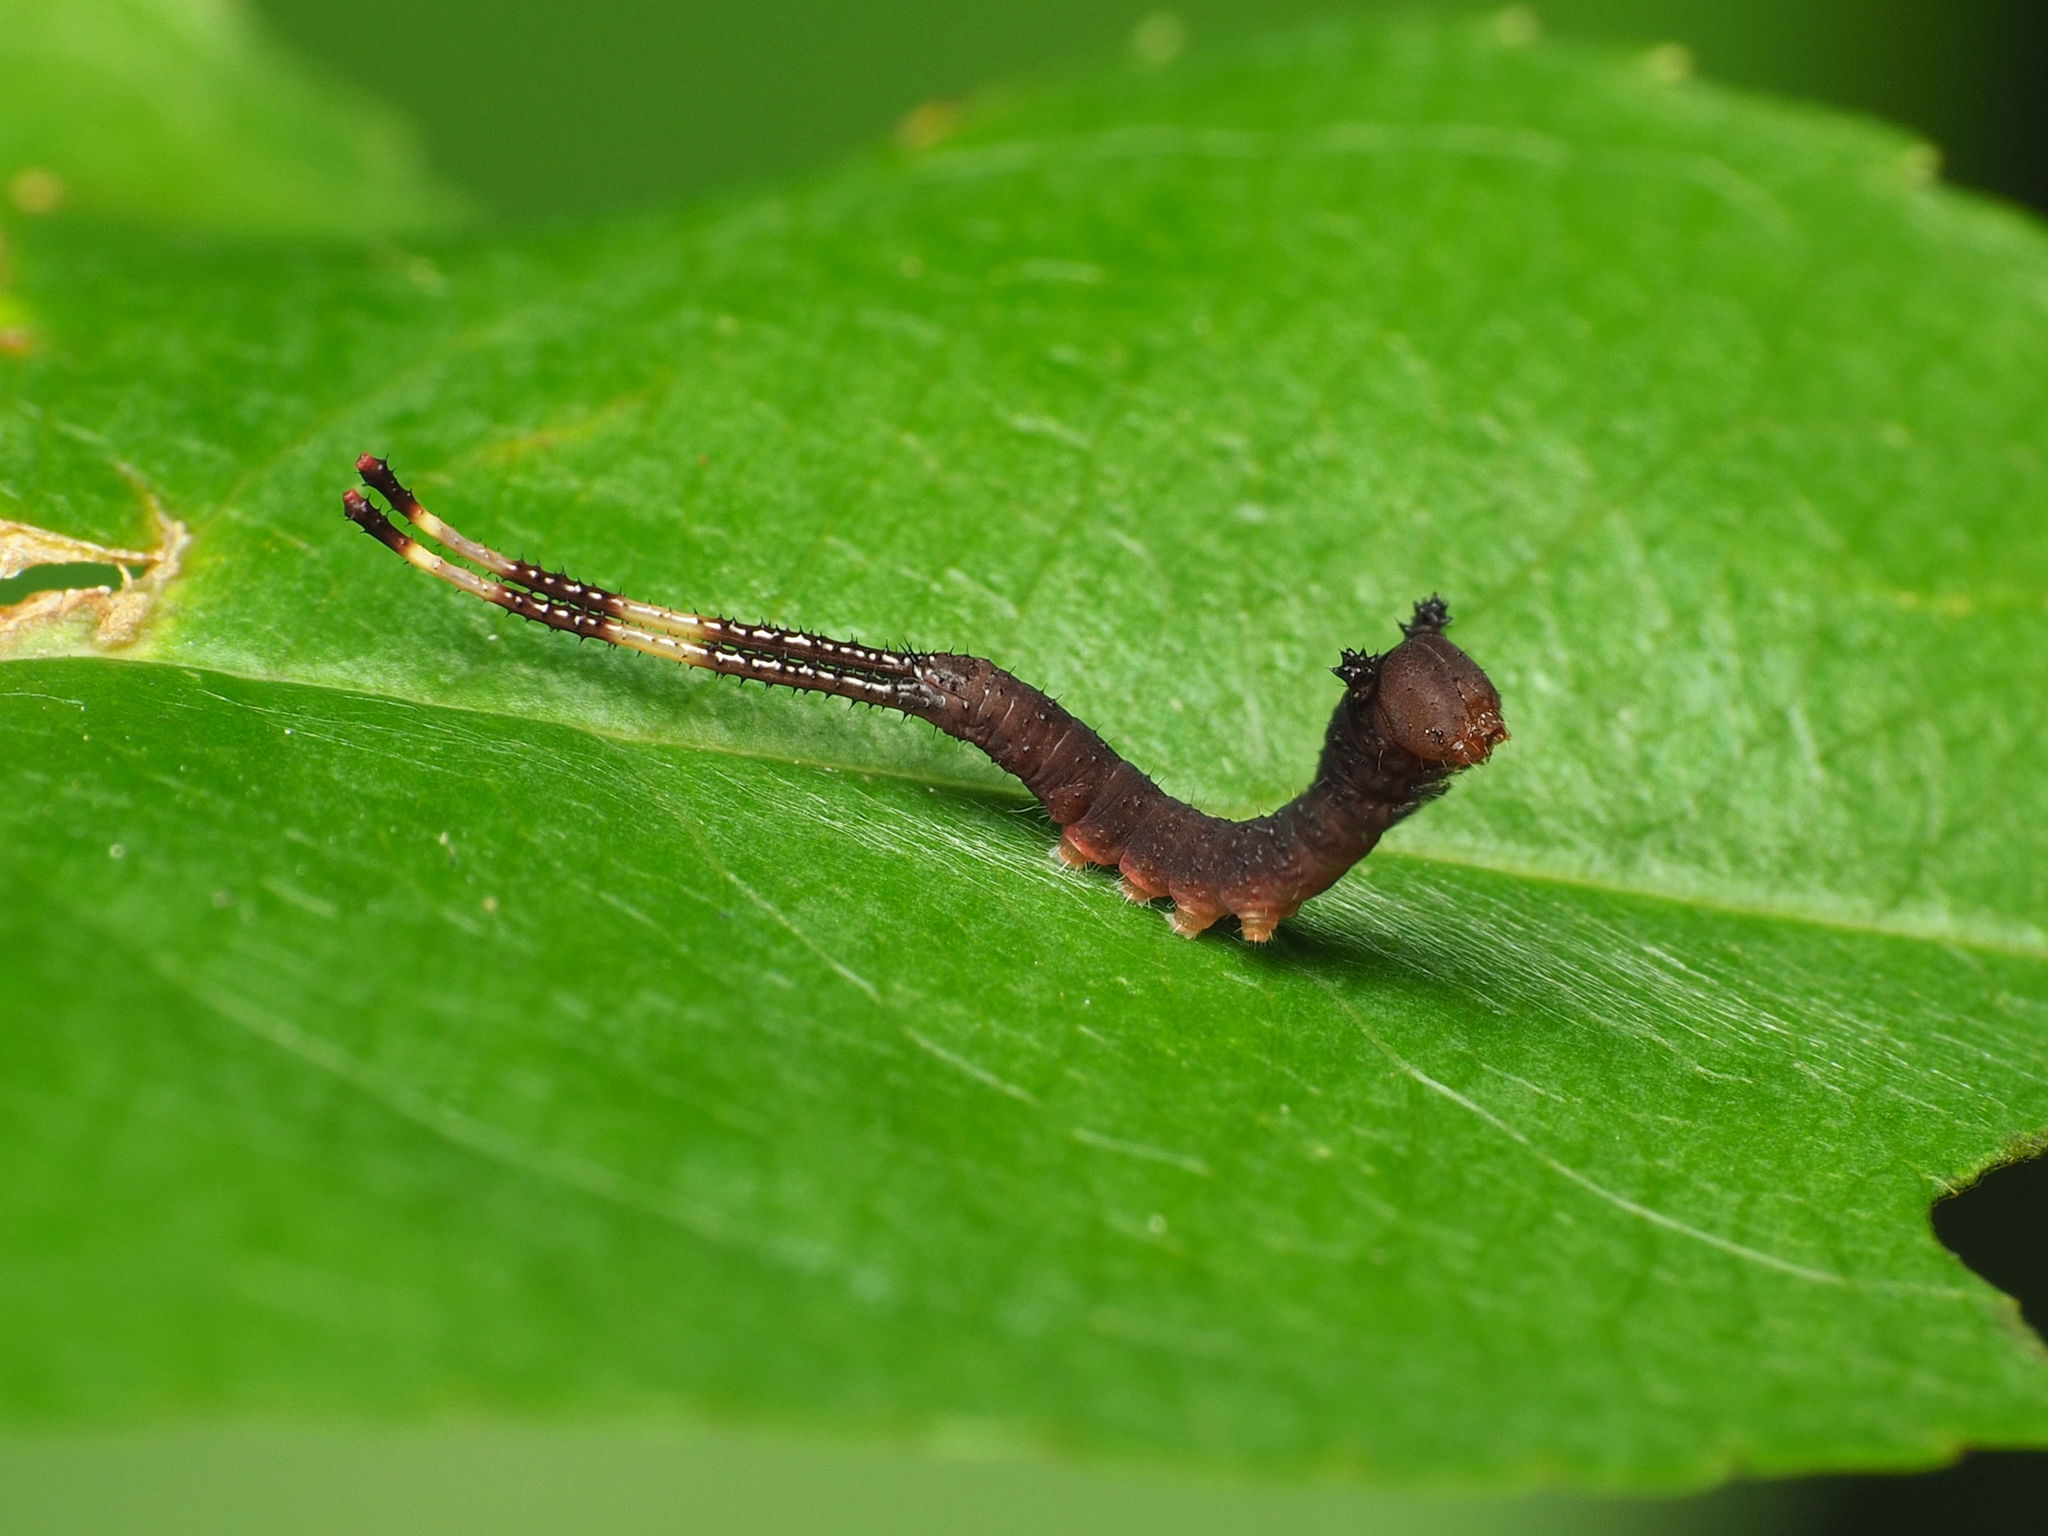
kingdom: Animalia
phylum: Arthropoda
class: Insecta
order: Lepidoptera
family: Notodontidae
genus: Furcula
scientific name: Furcula borealis
